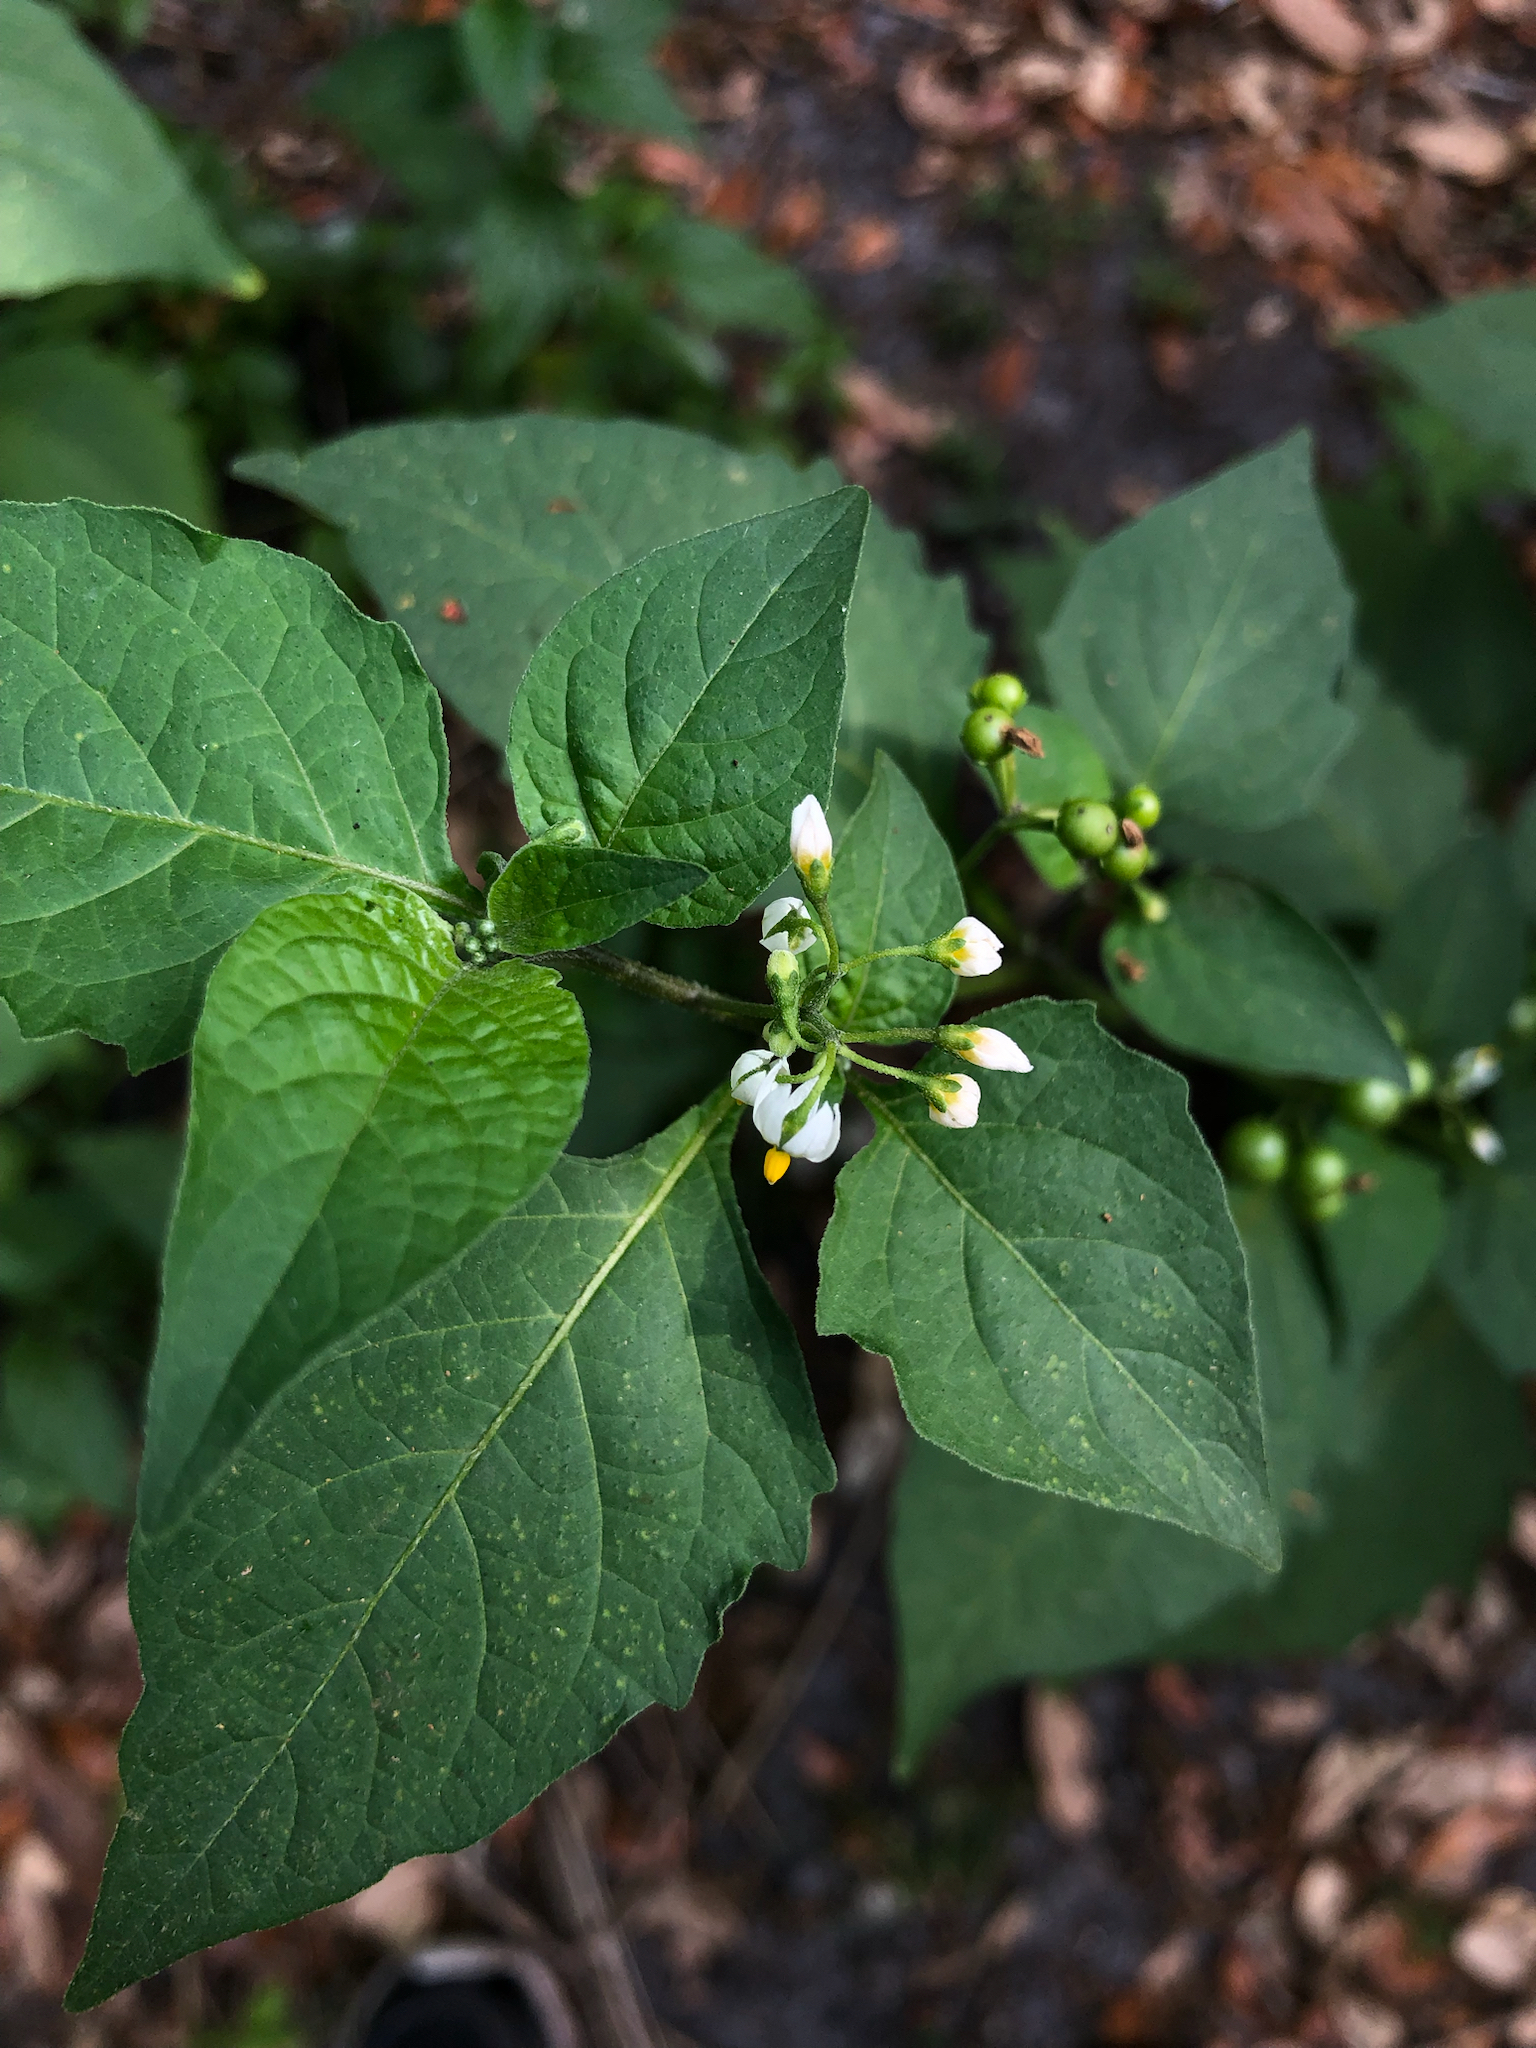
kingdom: Plantae
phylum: Tracheophyta
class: Magnoliopsida
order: Solanales
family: Solanaceae
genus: Solanum
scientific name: Solanum americanum
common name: American black nightshade
